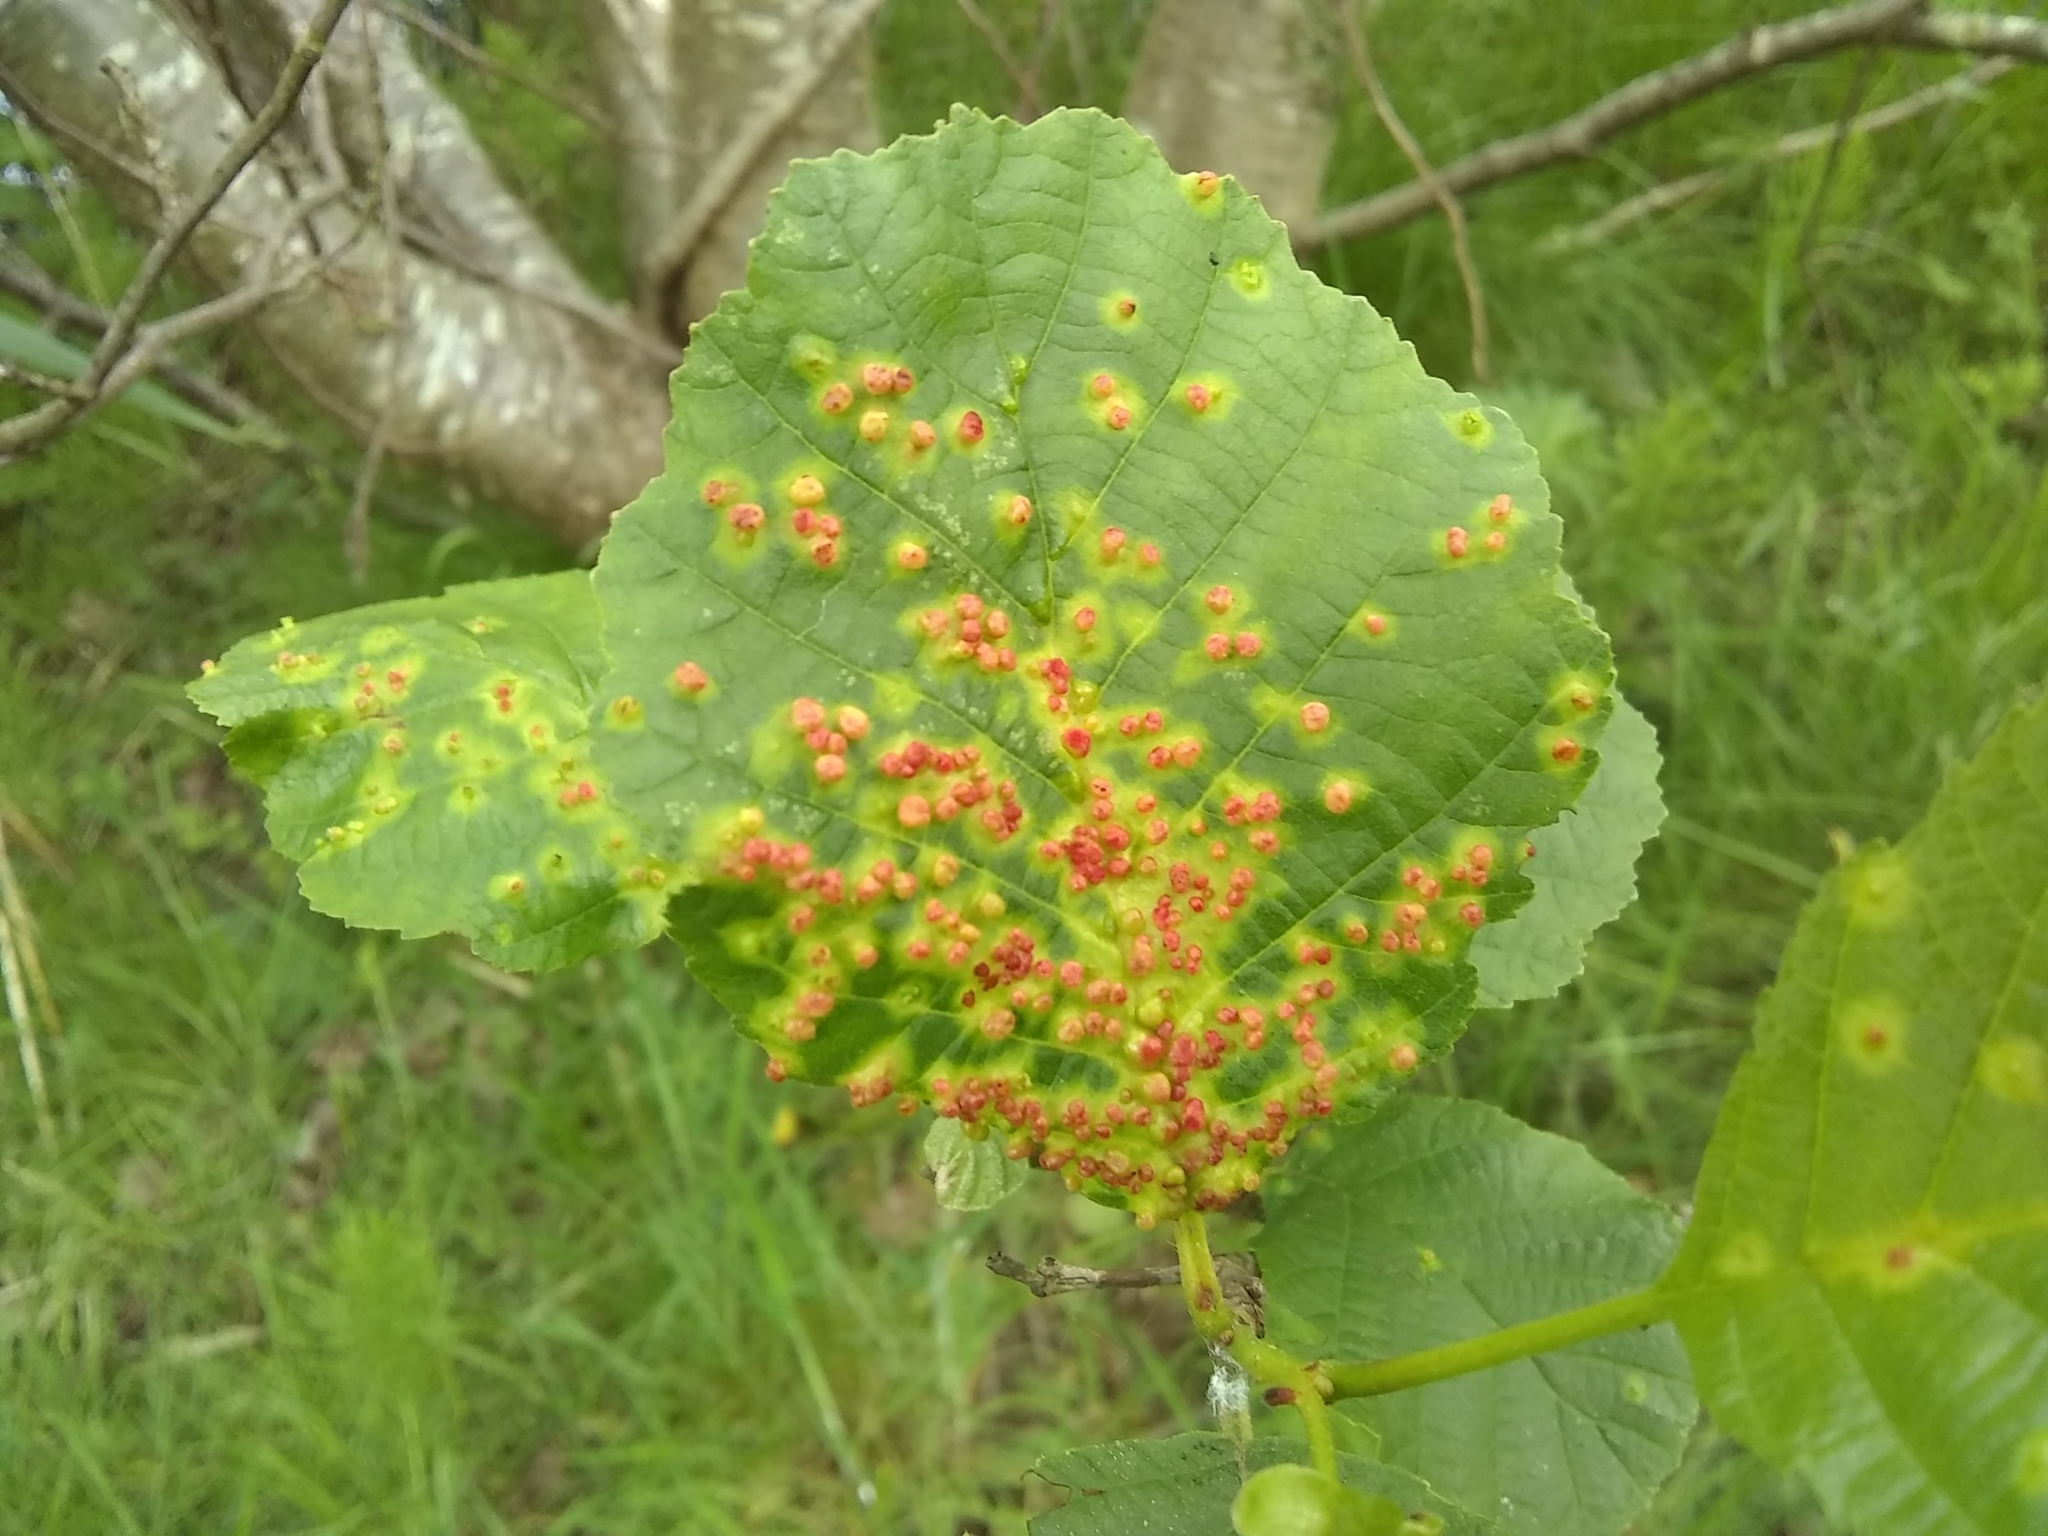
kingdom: Animalia
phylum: Arthropoda
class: Arachnida
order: Trombidiformes
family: Eriophyidae
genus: Eriophyes
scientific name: Eriophyes laevis
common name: Alder leaf gall mite
